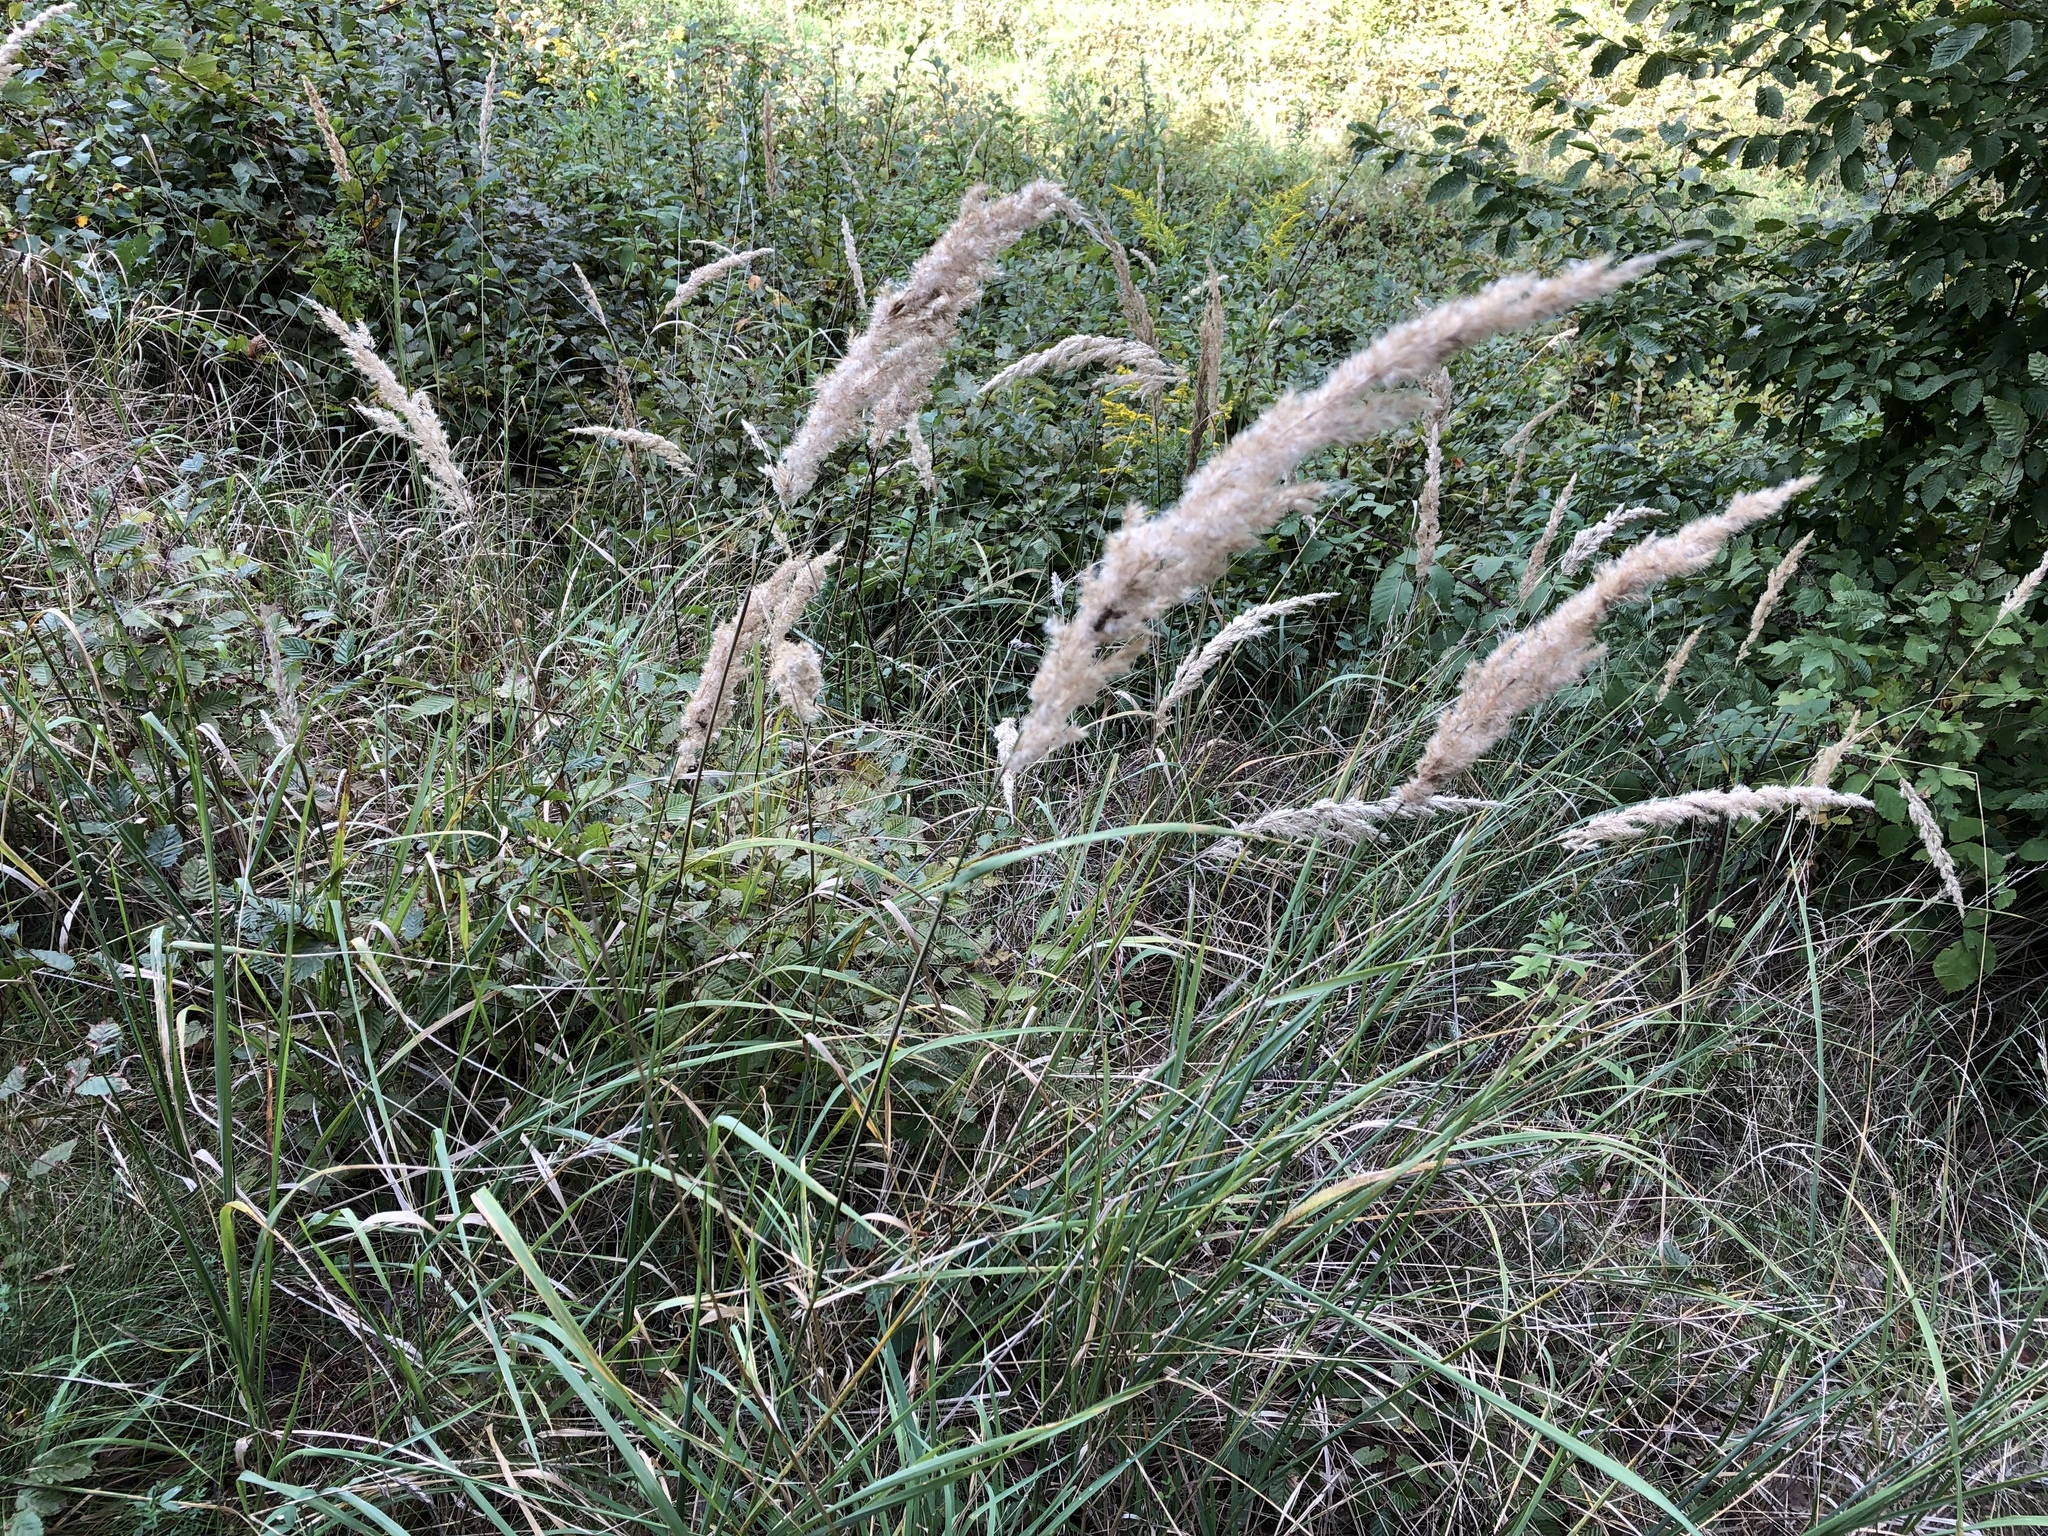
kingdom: Plantae
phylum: Tracheophyta
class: Liliopsida
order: Poales
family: Poaceae
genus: Calamagrostis
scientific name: Calamagrostis epigejos
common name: Wood small-reed
